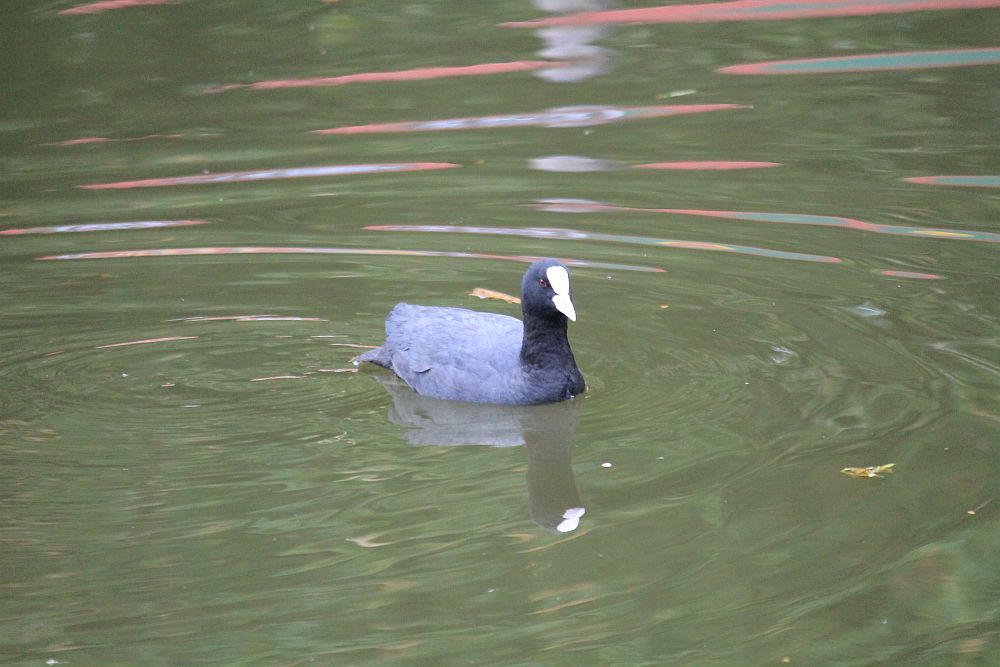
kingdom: Animalia
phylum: Chordata
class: Aves
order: Gruiformes
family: Rallidae
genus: Fulica
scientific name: Fulica atra
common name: Eurasian coot
